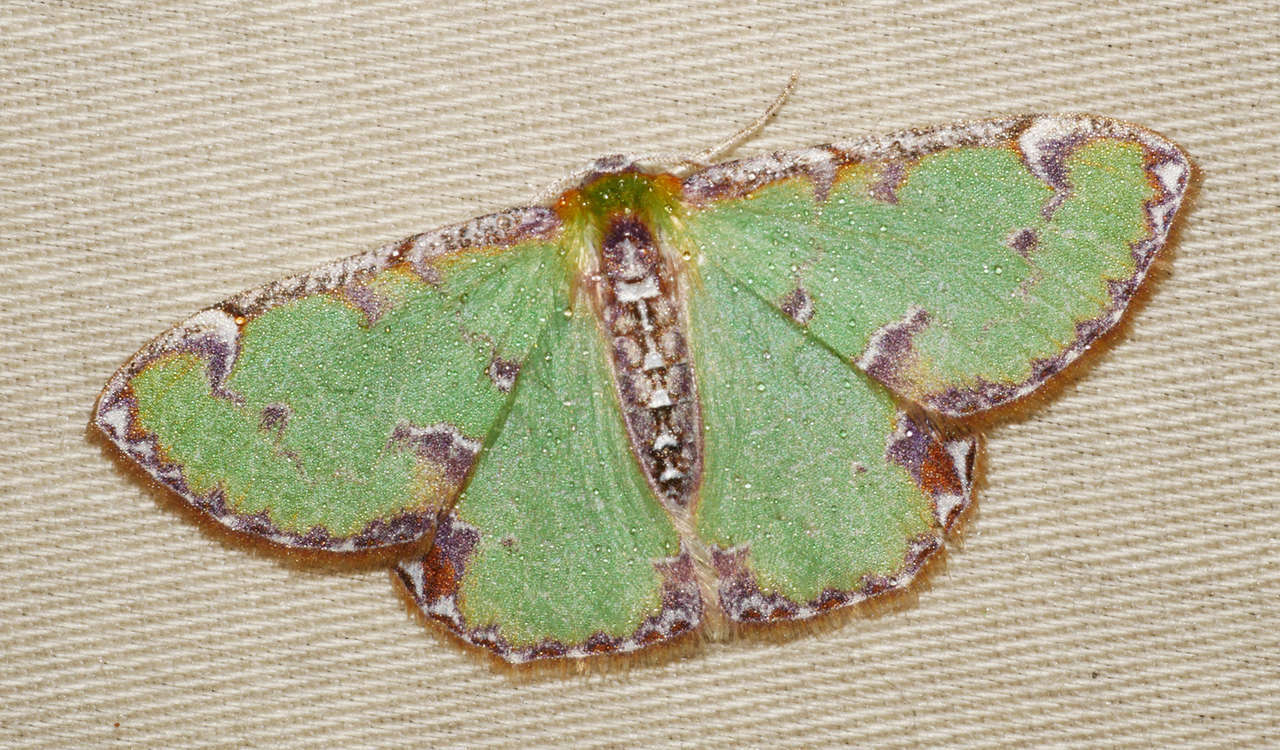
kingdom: Animalia
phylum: Arthropoda
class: Insecta
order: Lepidoptera
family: Geometridae
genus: Eucyclodes
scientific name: Eucyclodes buprestaria
